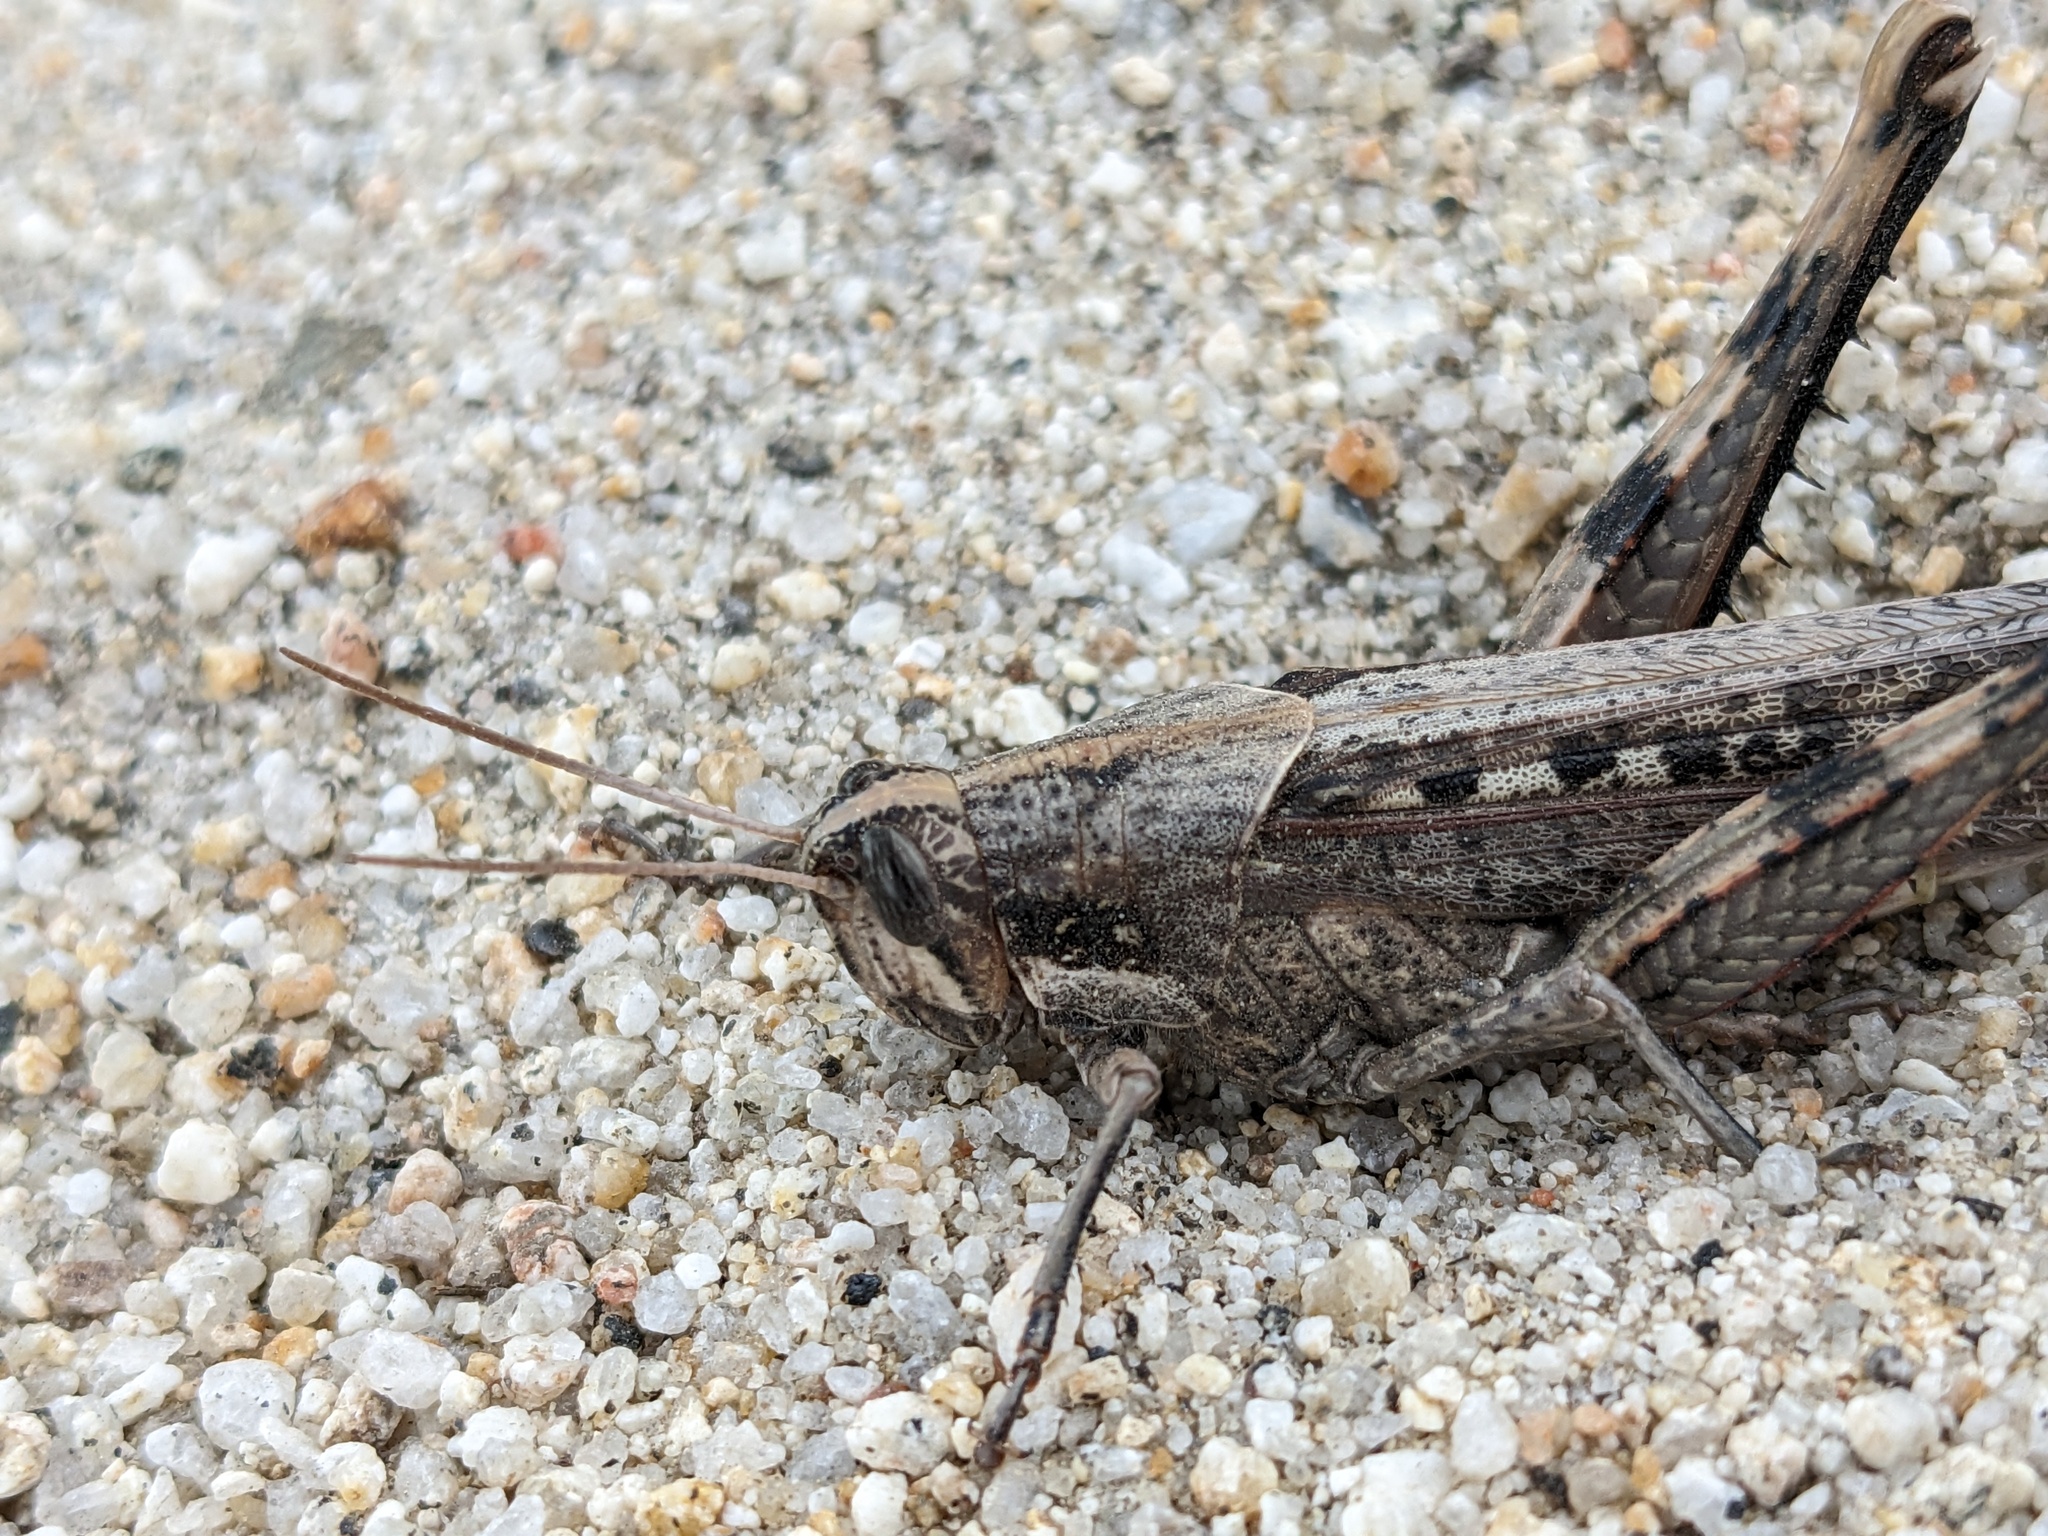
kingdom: Animalia
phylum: Arthropoda
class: Insecta
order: Orthoptera
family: Acrididae
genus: Schistocerca
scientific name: Schistocerca nitens
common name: Vagrant grasshopper
